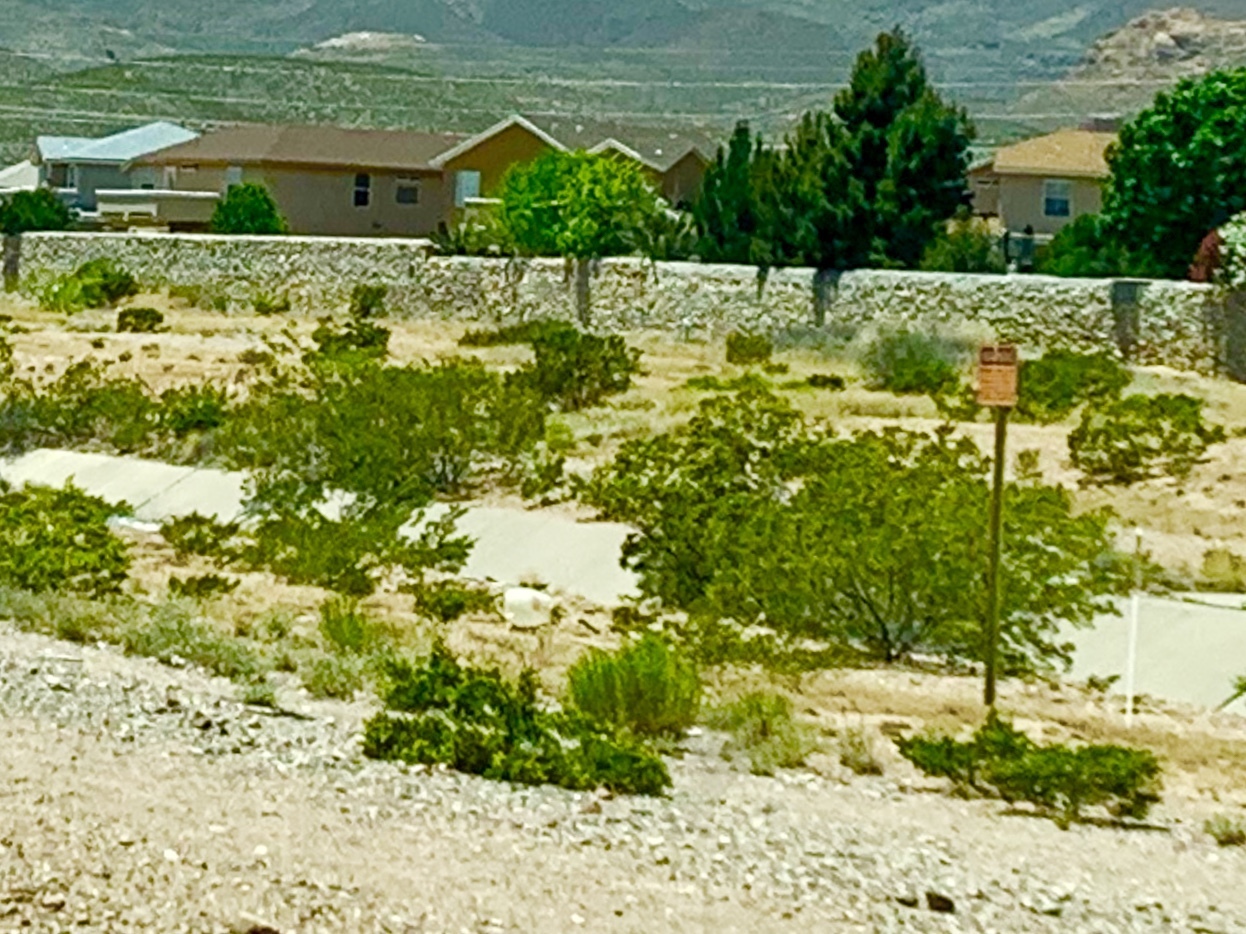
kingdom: Plantae
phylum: Tracheophyta
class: Magnoliopsida
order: Zygophyllales
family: Zygophyllaceae
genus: Larrea
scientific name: Larrea tridentata
